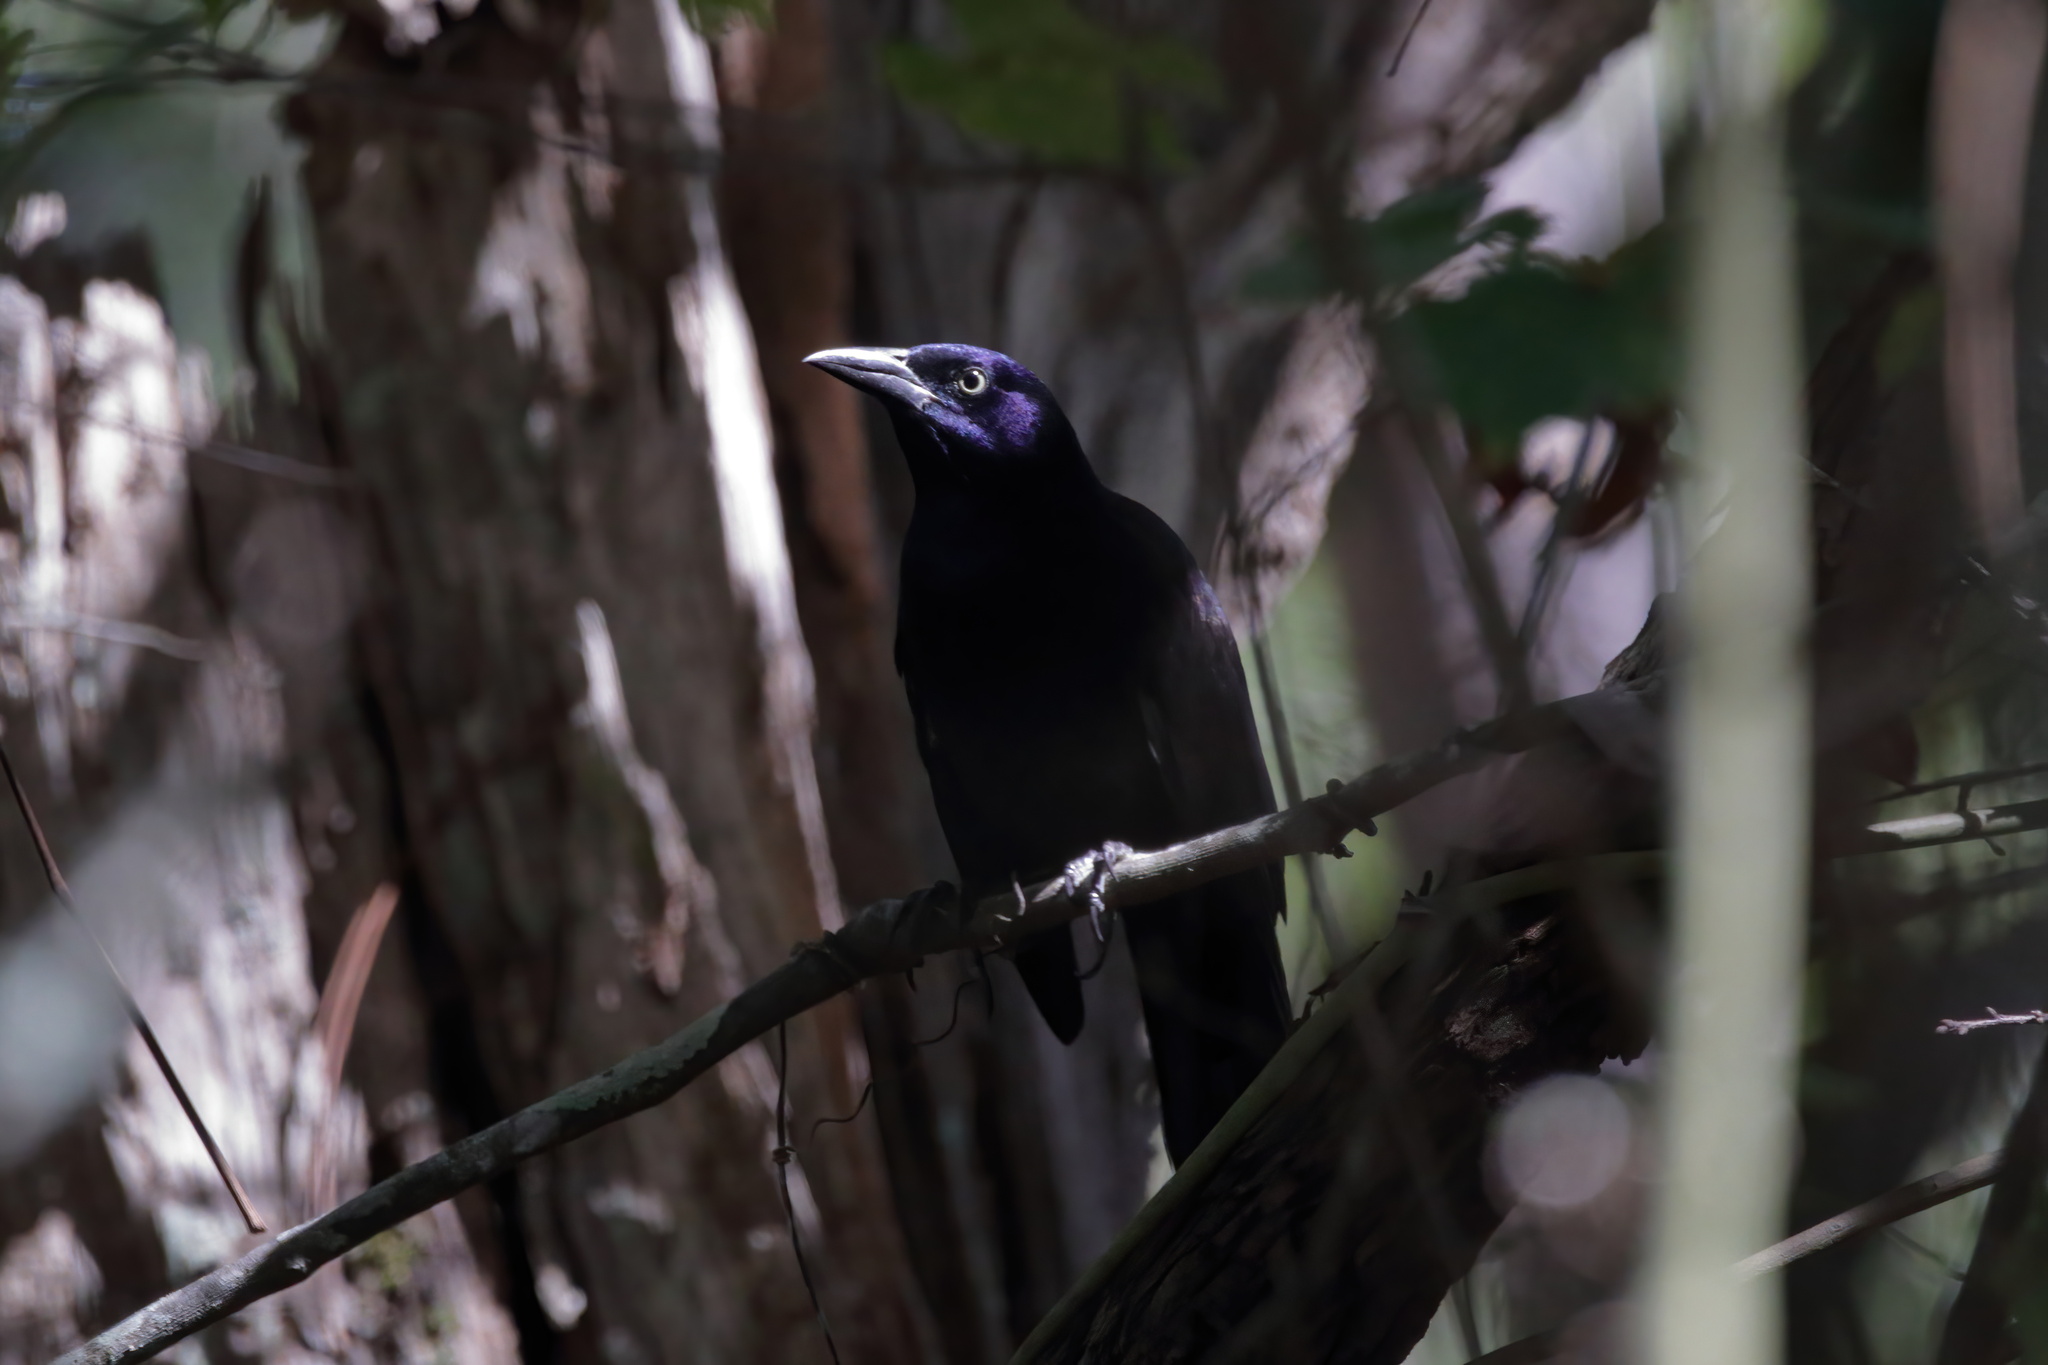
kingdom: Animalia
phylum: Chordata
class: Aves
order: Passeriformes
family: Icteridae
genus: Quiscalus
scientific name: Quiscalus quiscula
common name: Common grackle
